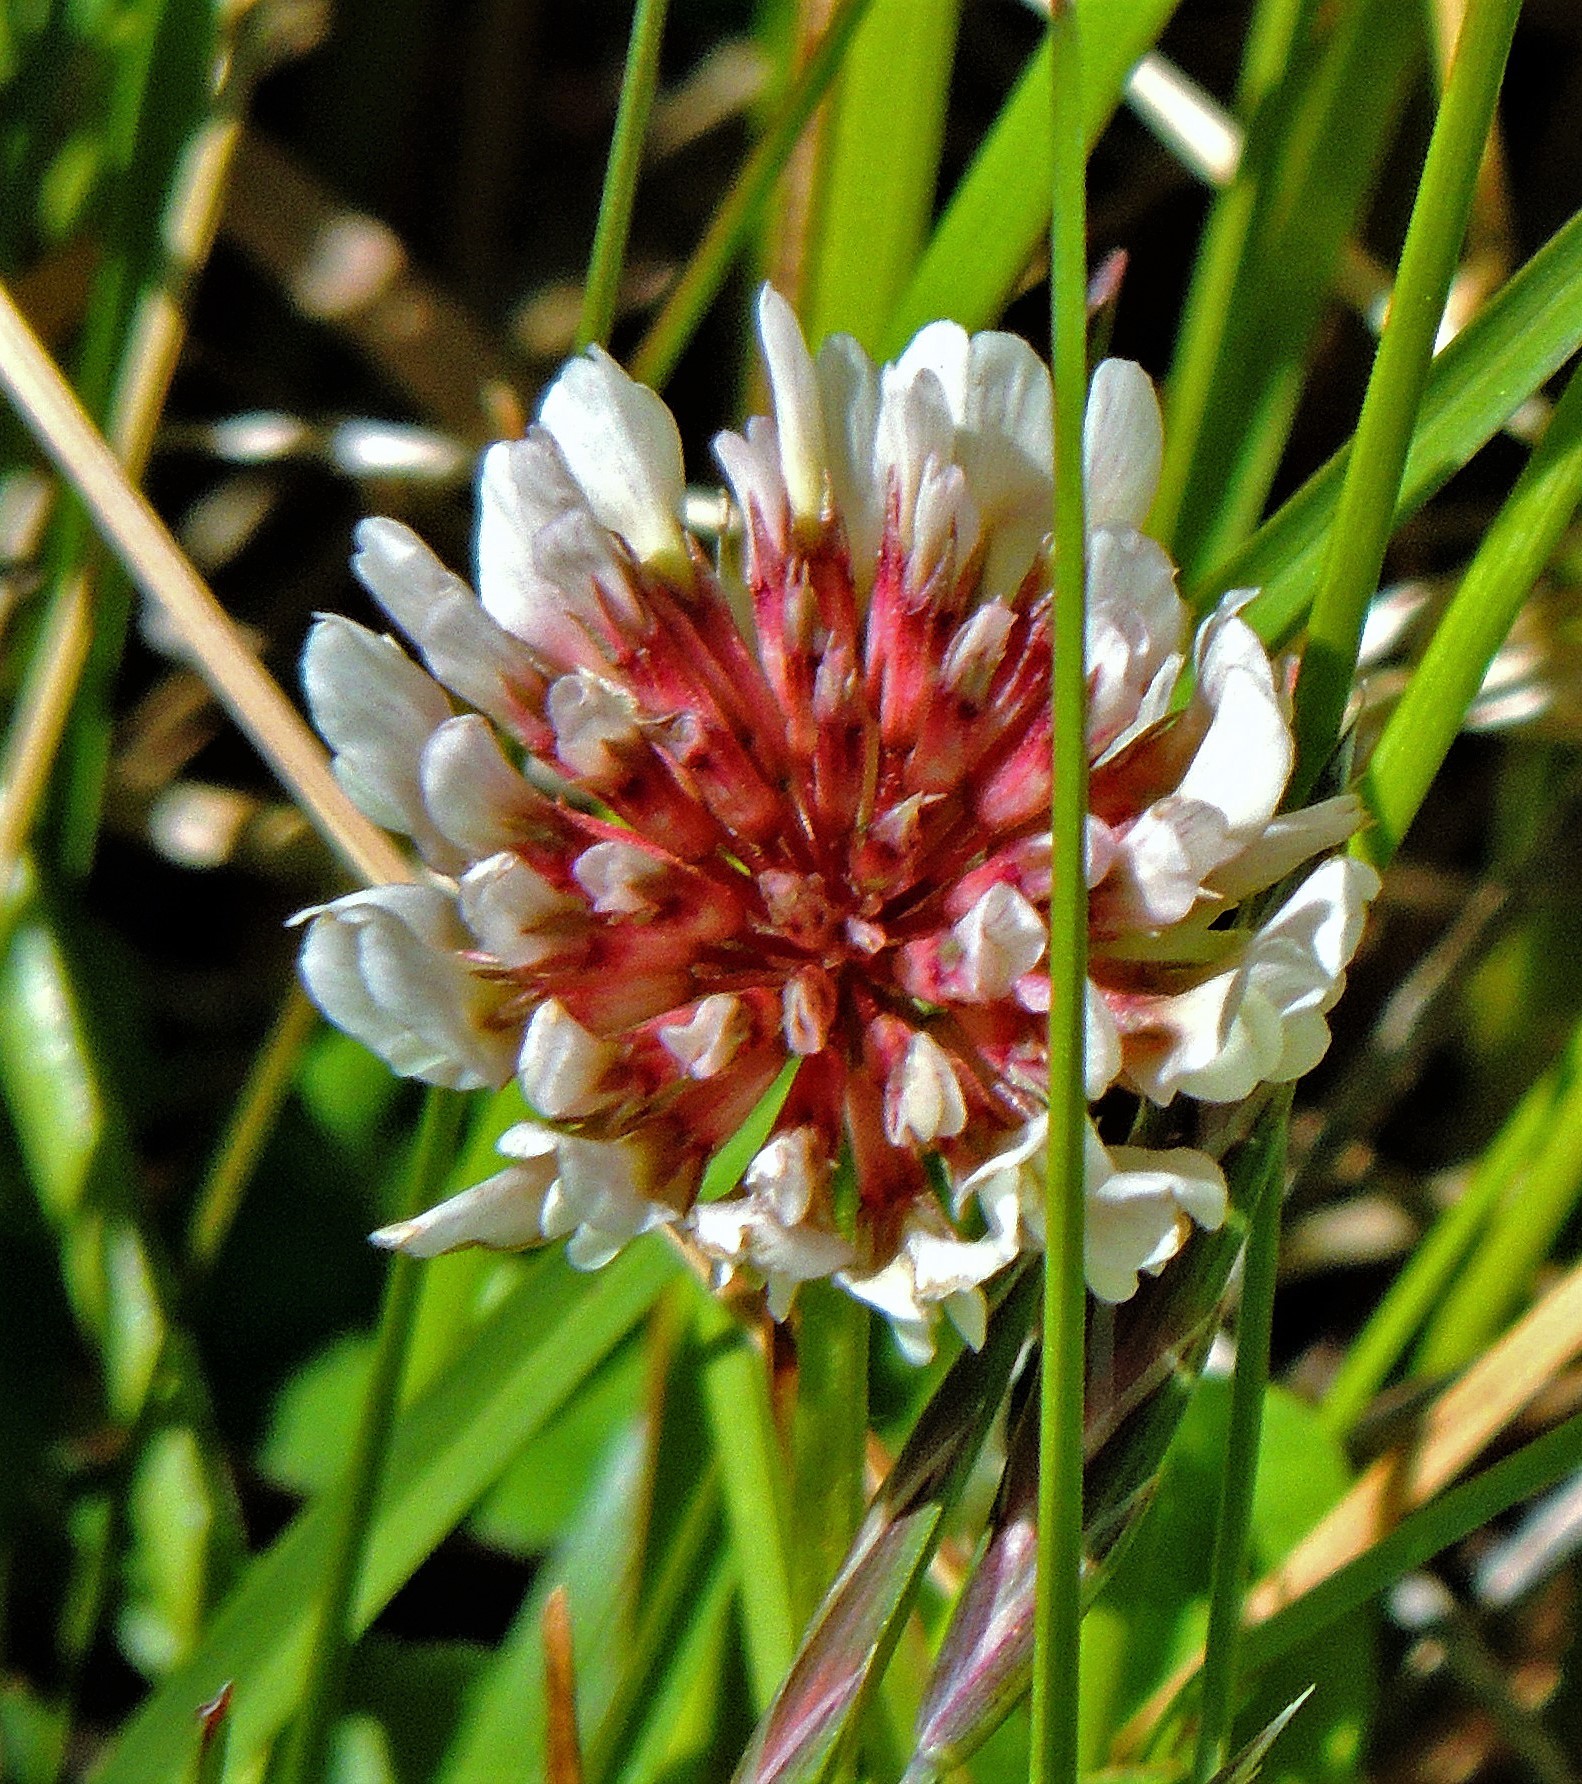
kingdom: Plantae
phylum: Tracheophyta
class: Magnoliopsida
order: Fabales
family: Fabaceae
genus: Trifolium
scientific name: Trifolium repens
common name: White clover
